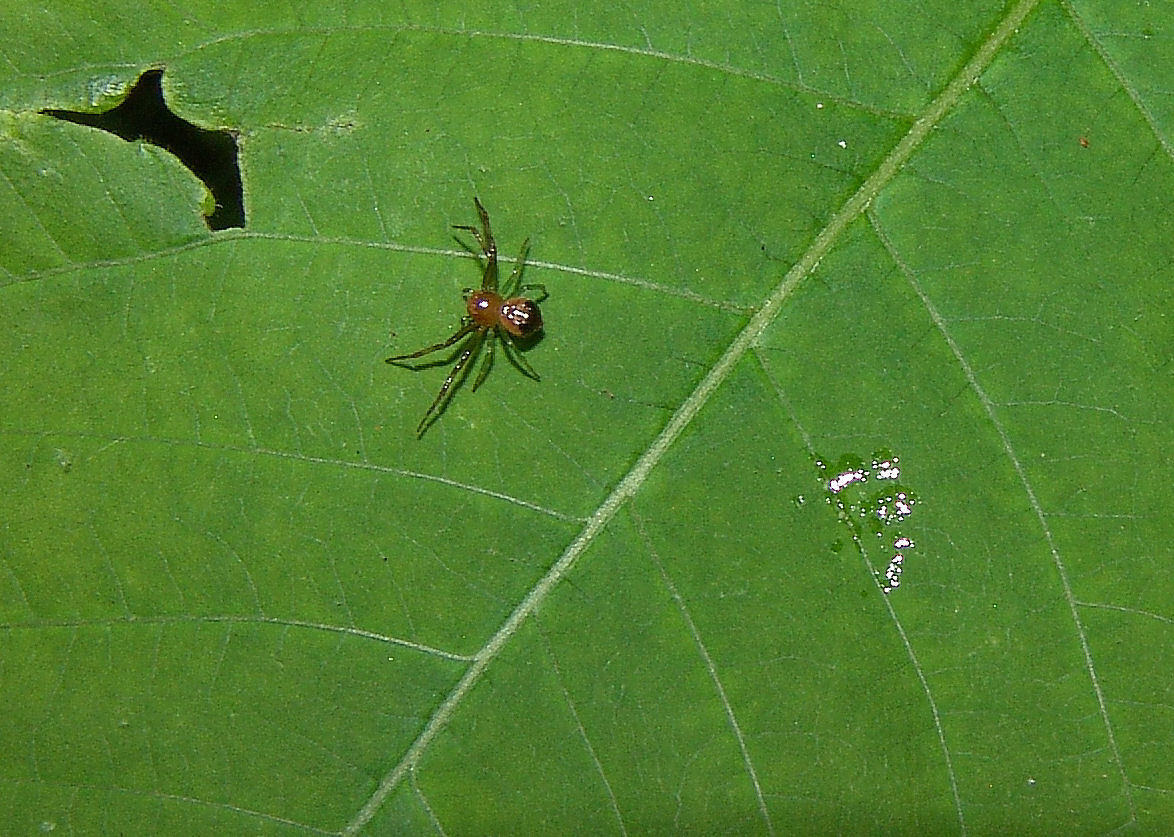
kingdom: Animalia
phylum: Arthropoda
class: Arachnida
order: Araneae
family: Thomisidae
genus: Synema
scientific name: Synema parvulum
